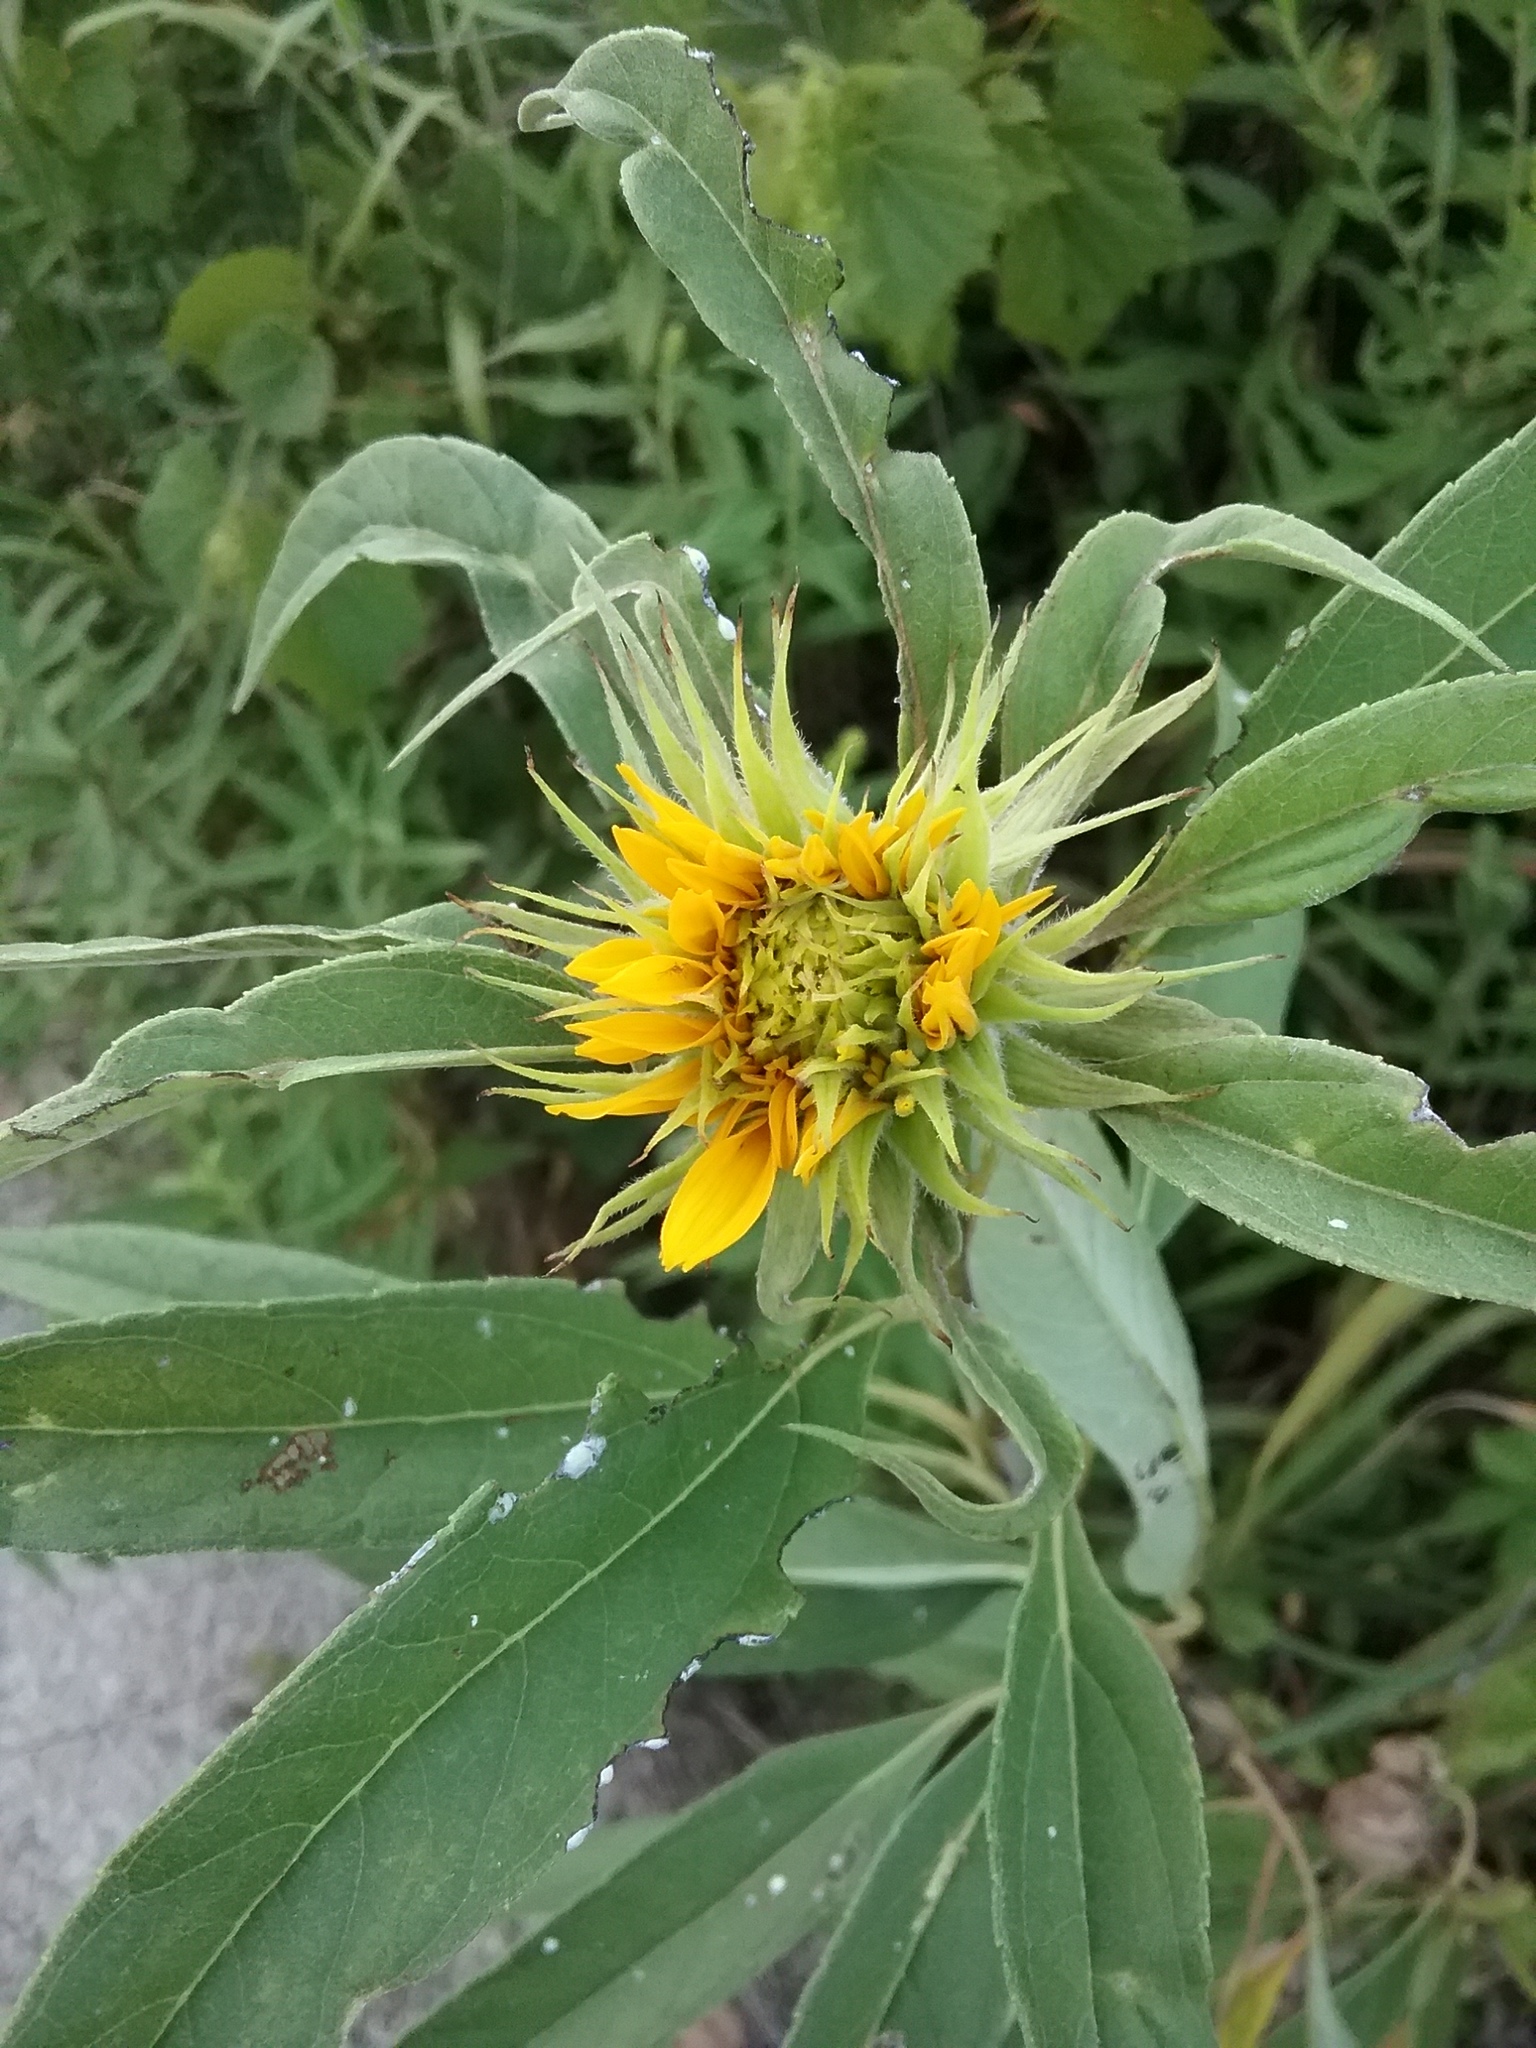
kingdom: Plantae
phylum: Tracheophyta
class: Magnoliopsida
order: Asterales
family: Asteraceae
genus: Helianthus
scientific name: Helianthus maximiliani
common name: Maximilian's sunflower
